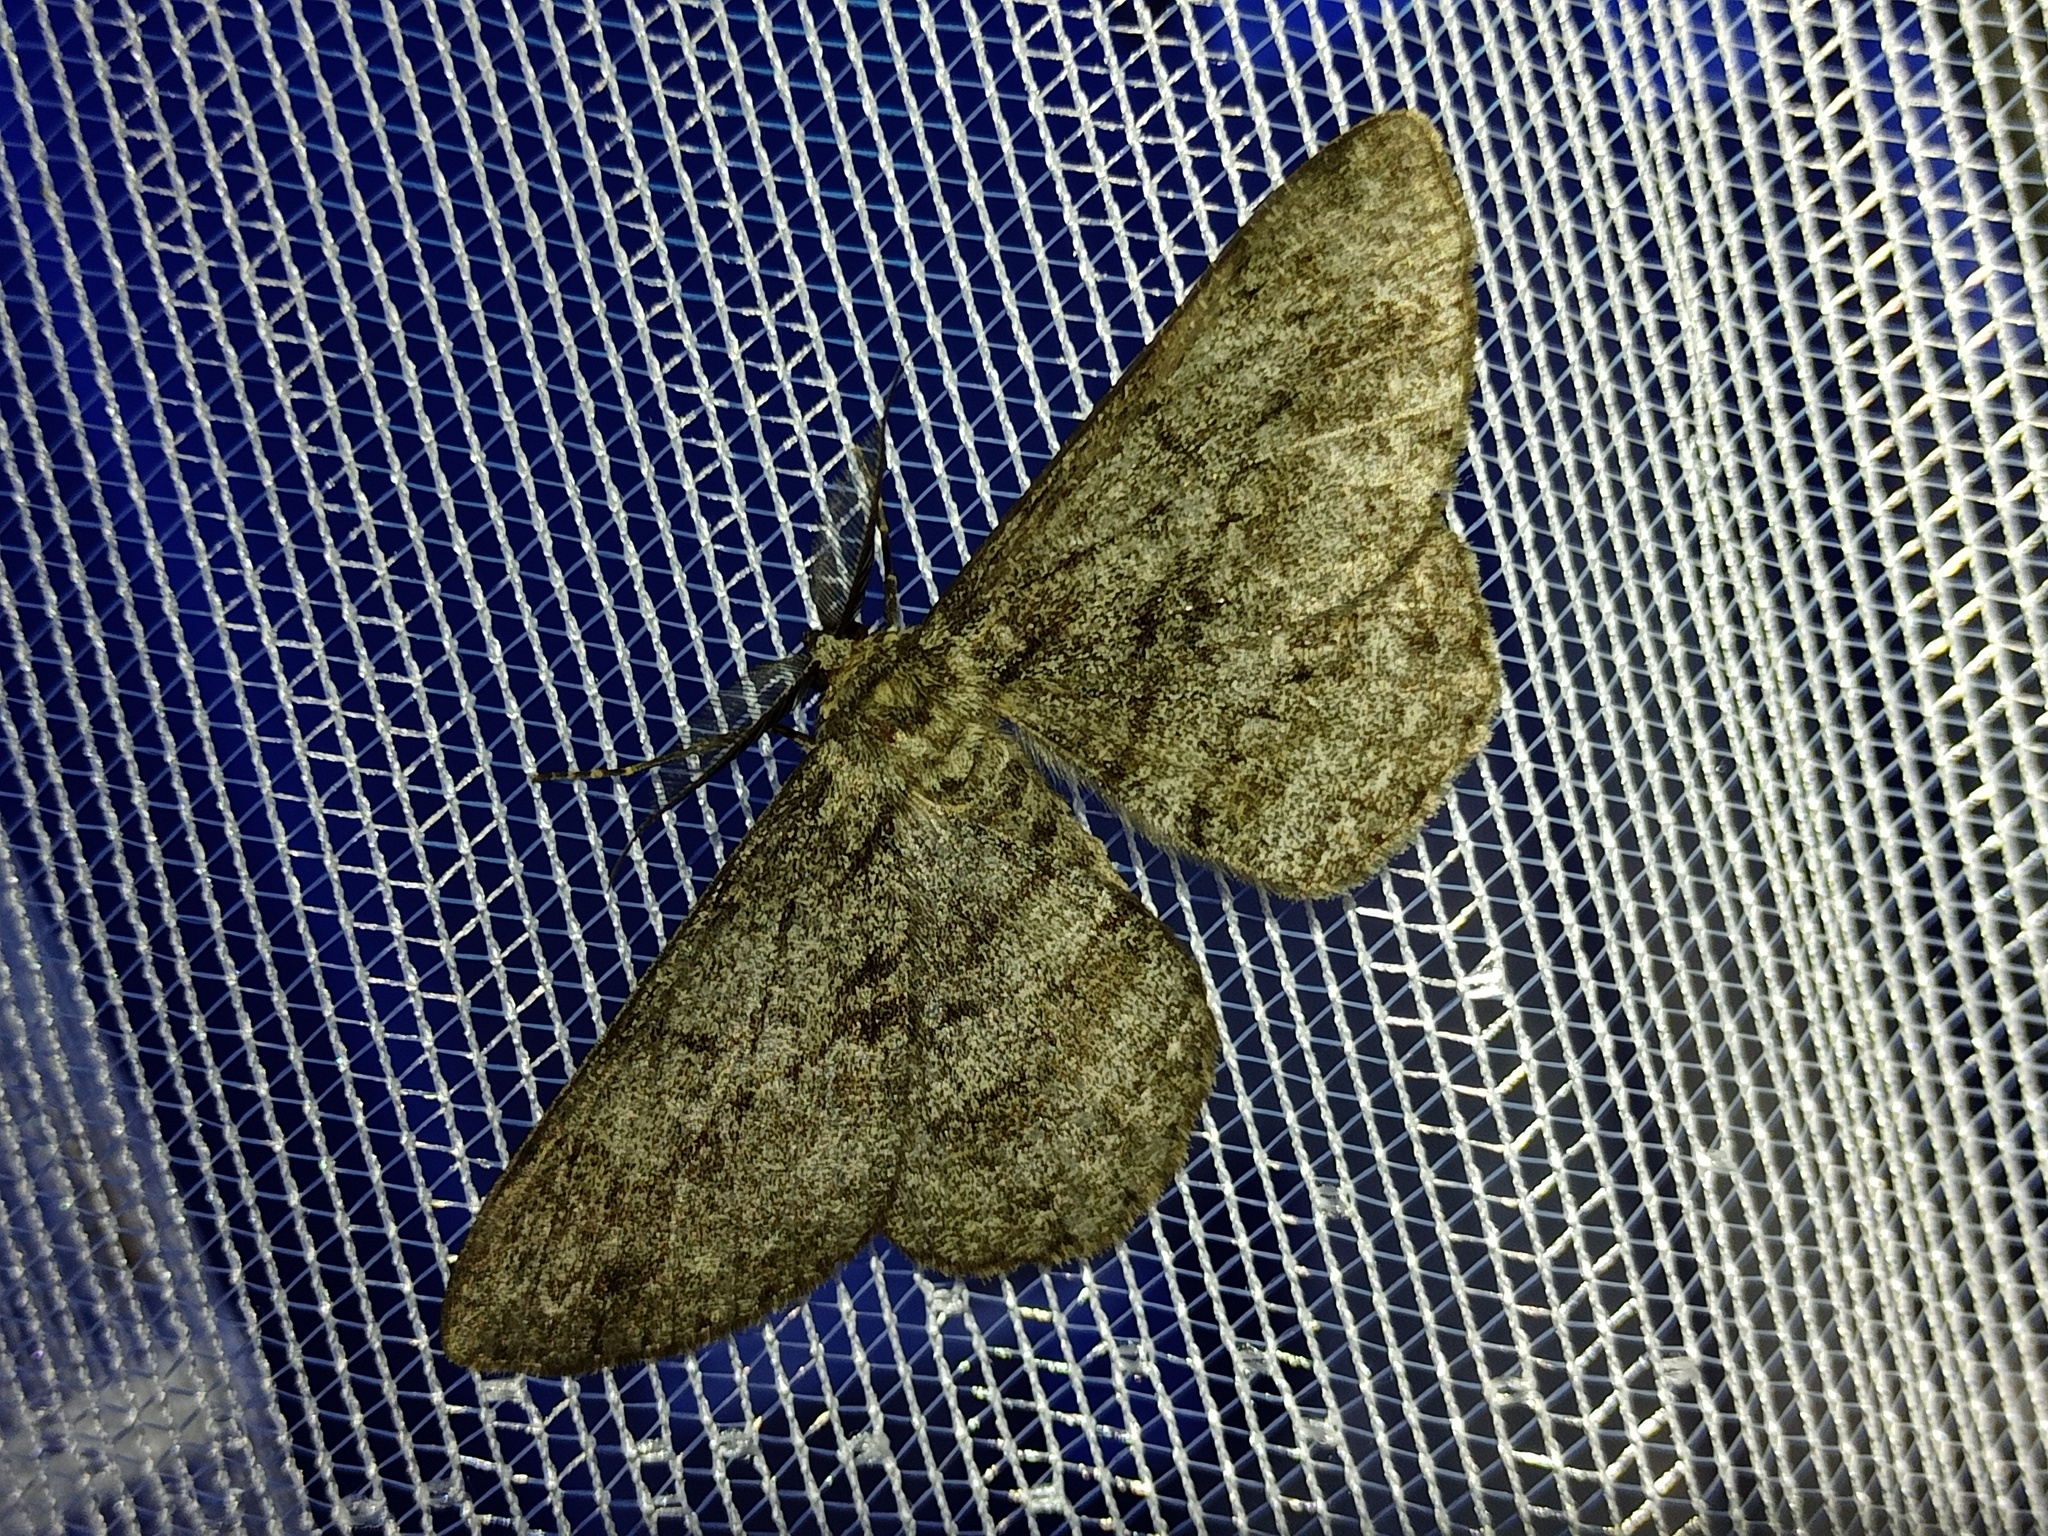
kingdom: Animalia
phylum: Arthropoda
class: Insecta
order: Lepidoptera
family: Geometridae
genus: Hypomecis
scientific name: Hypomecis roboraria
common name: Great oak beauty
